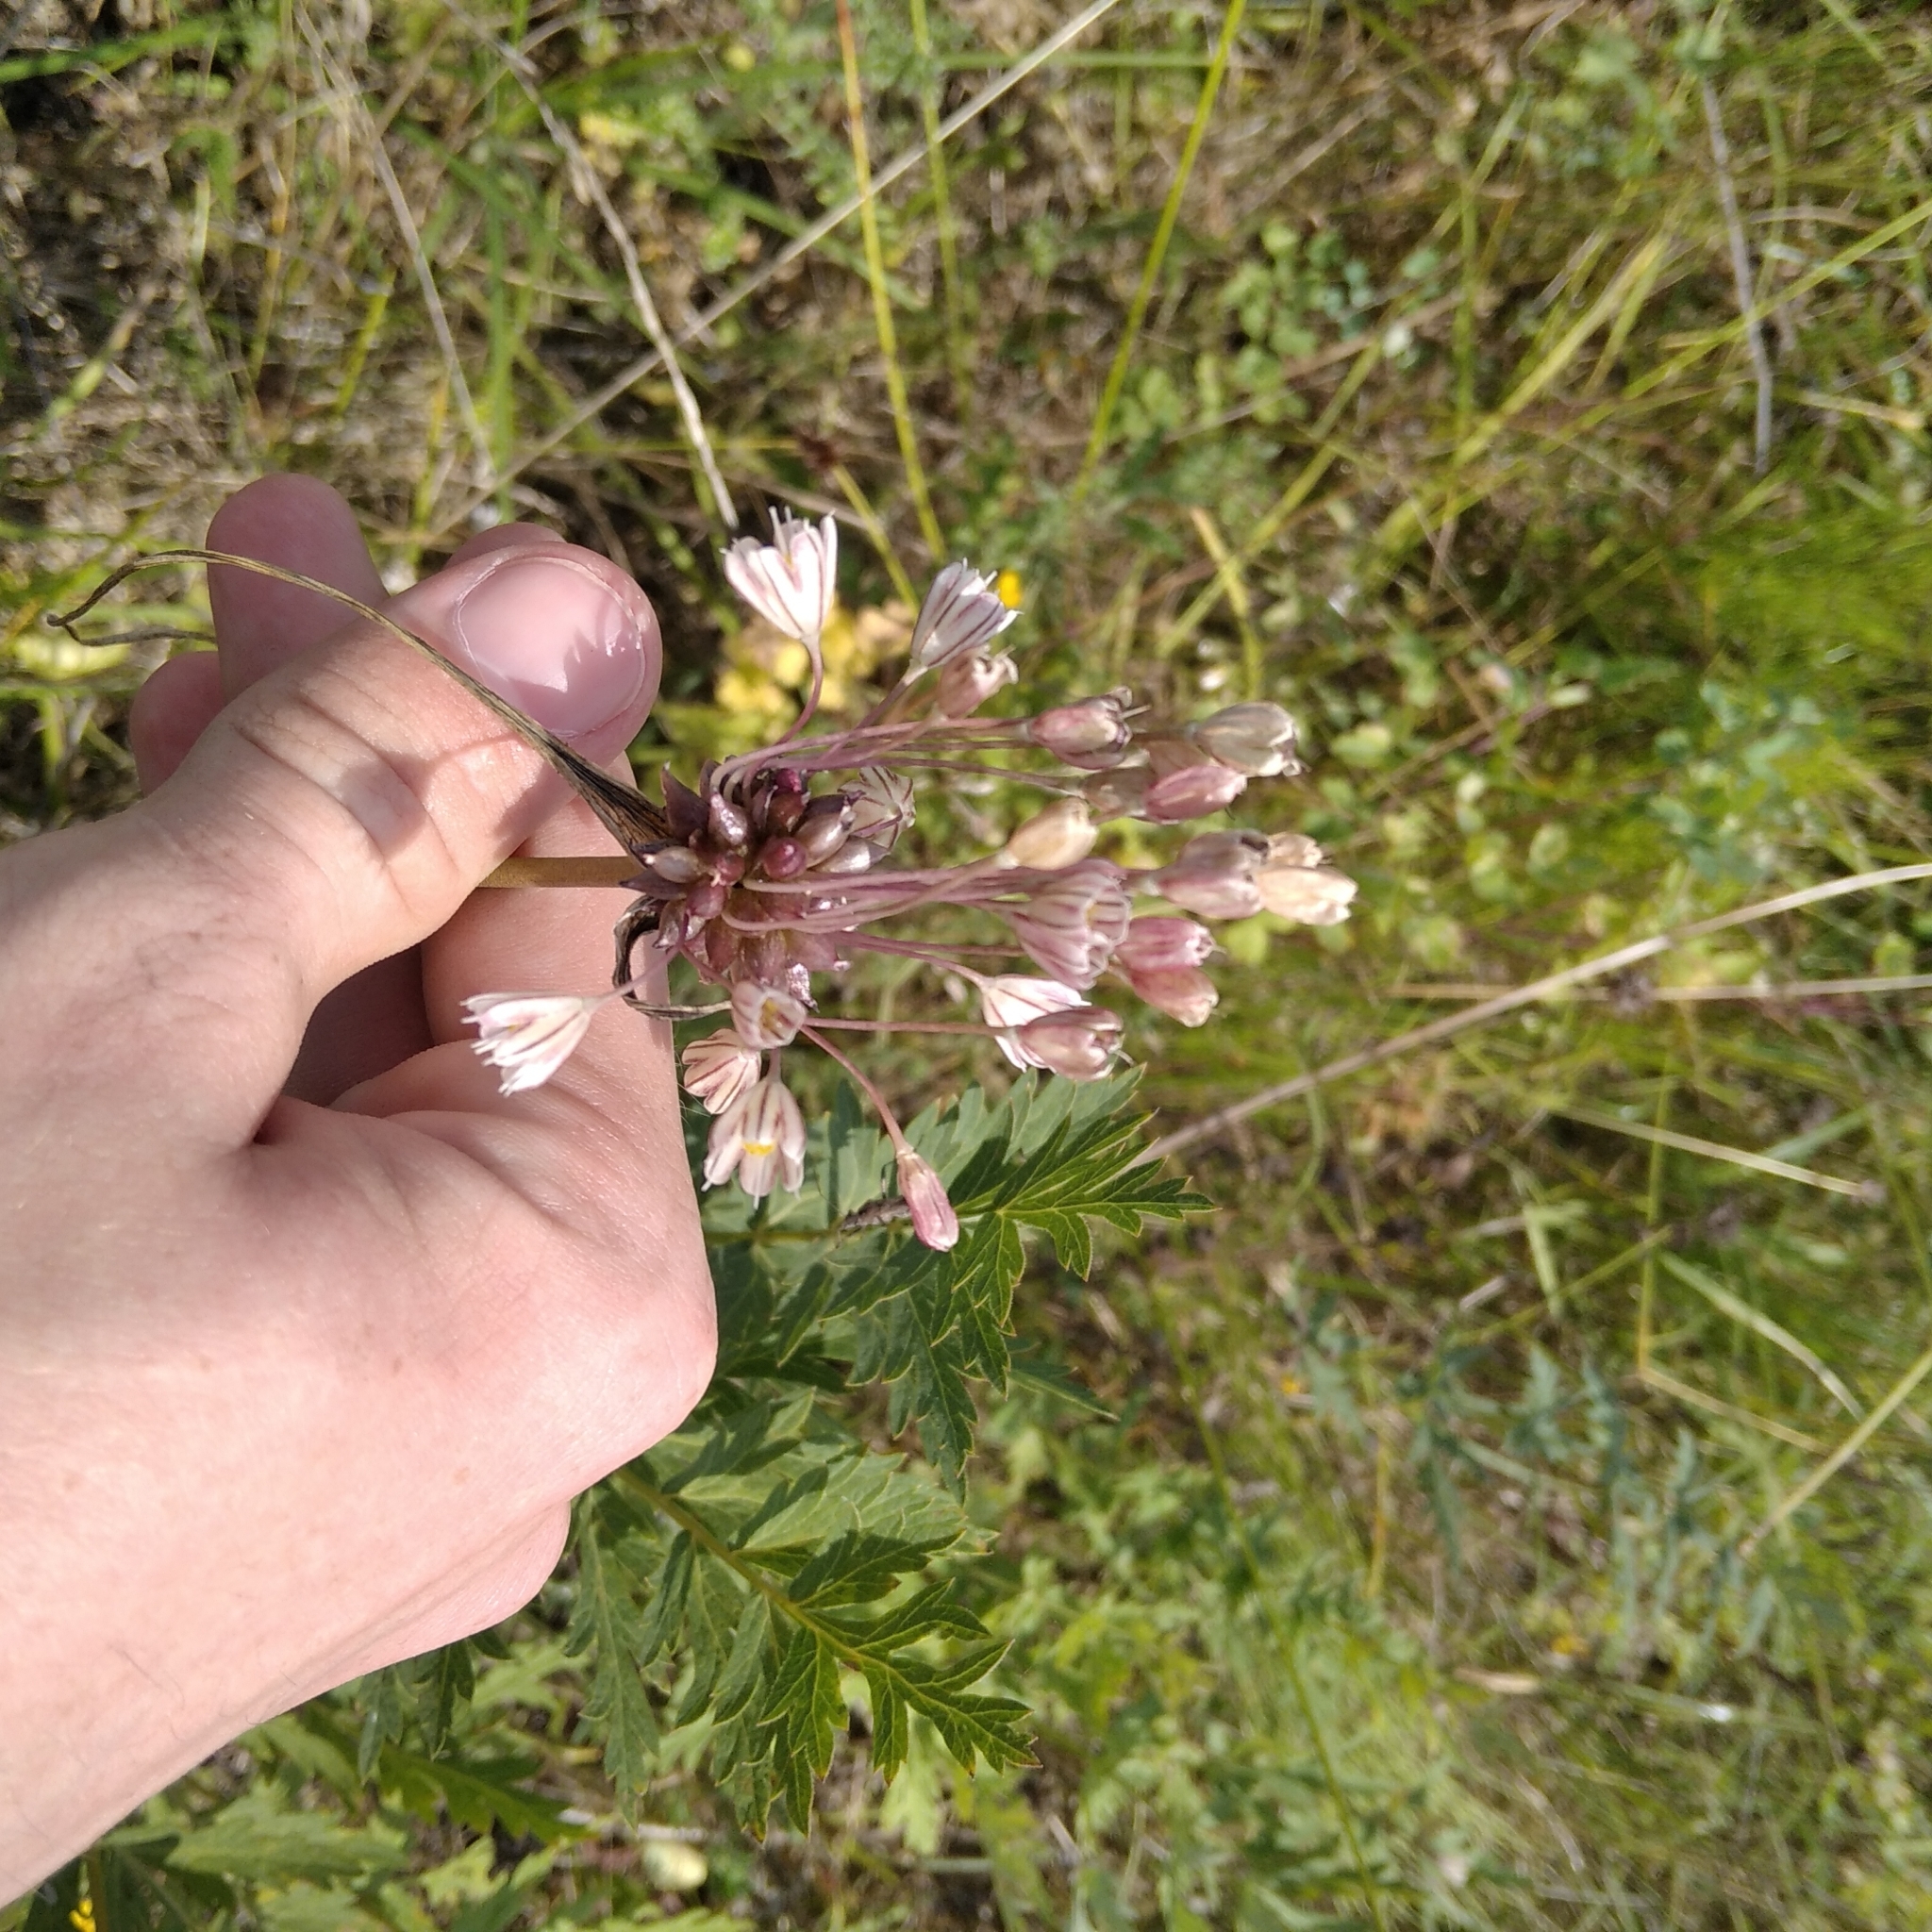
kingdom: Plantae
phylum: Tracheophyta
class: Liliopsida
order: Asparagales
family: Amaryllidaceae
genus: Allium
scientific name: Allium oleraceum
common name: Field garlic
